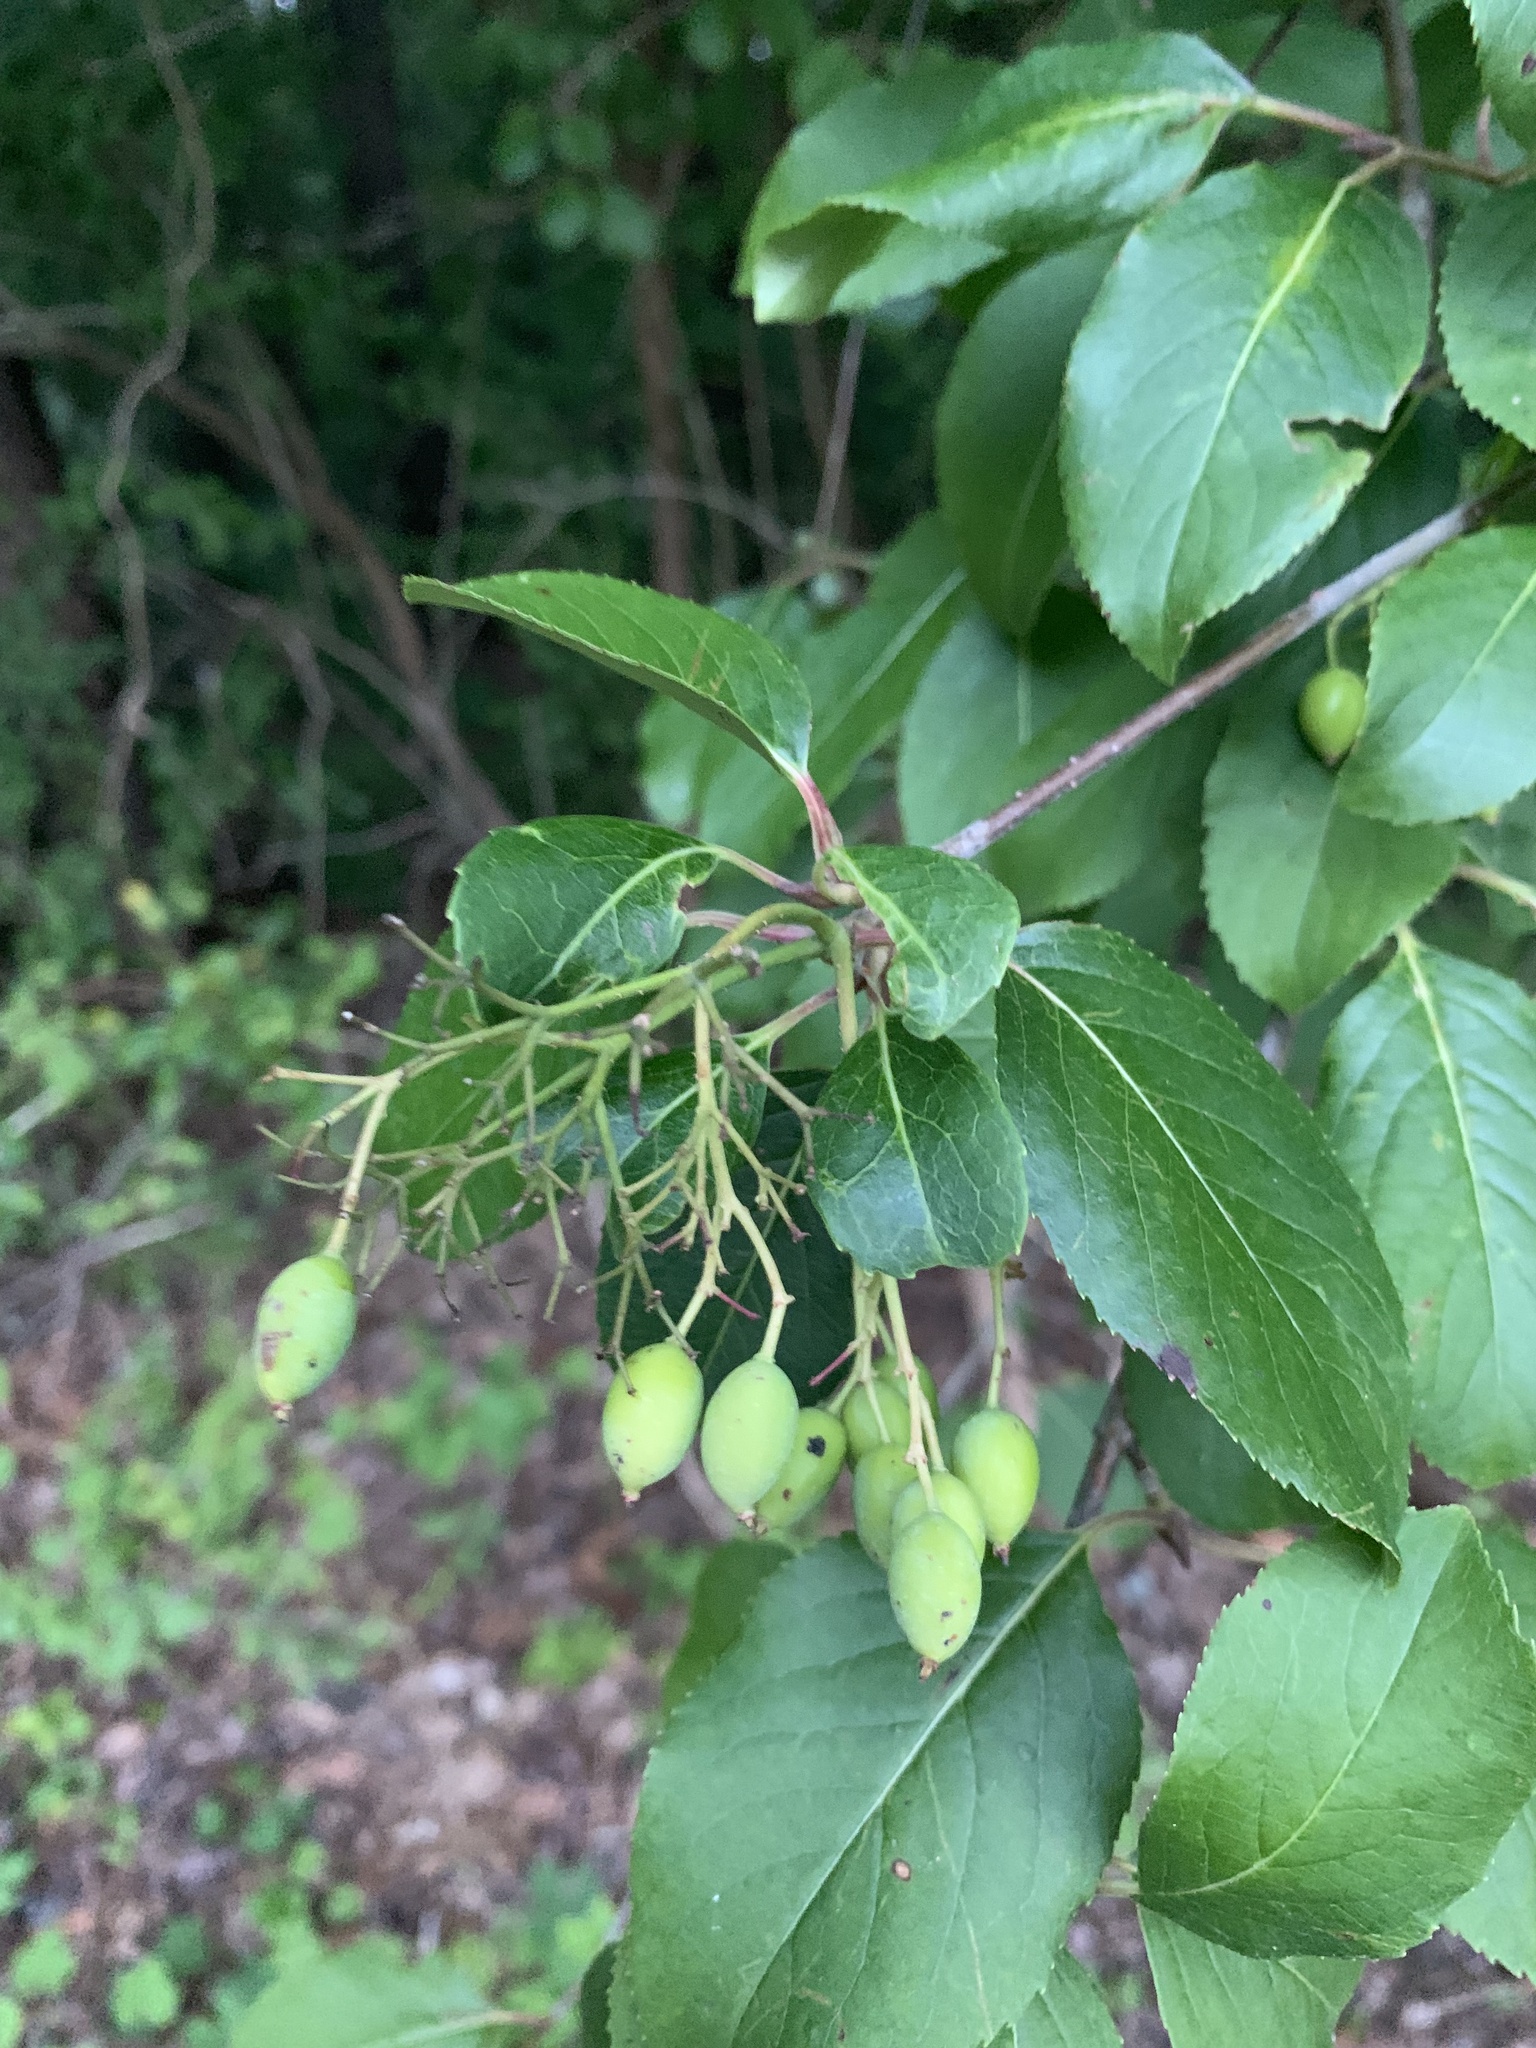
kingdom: Plantae
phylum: Tracheophyta
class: Magnoliopsida
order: Dipsacales
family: Viburnaceae
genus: Viburnum
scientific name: Viburnum prunifolium
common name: Black haw
